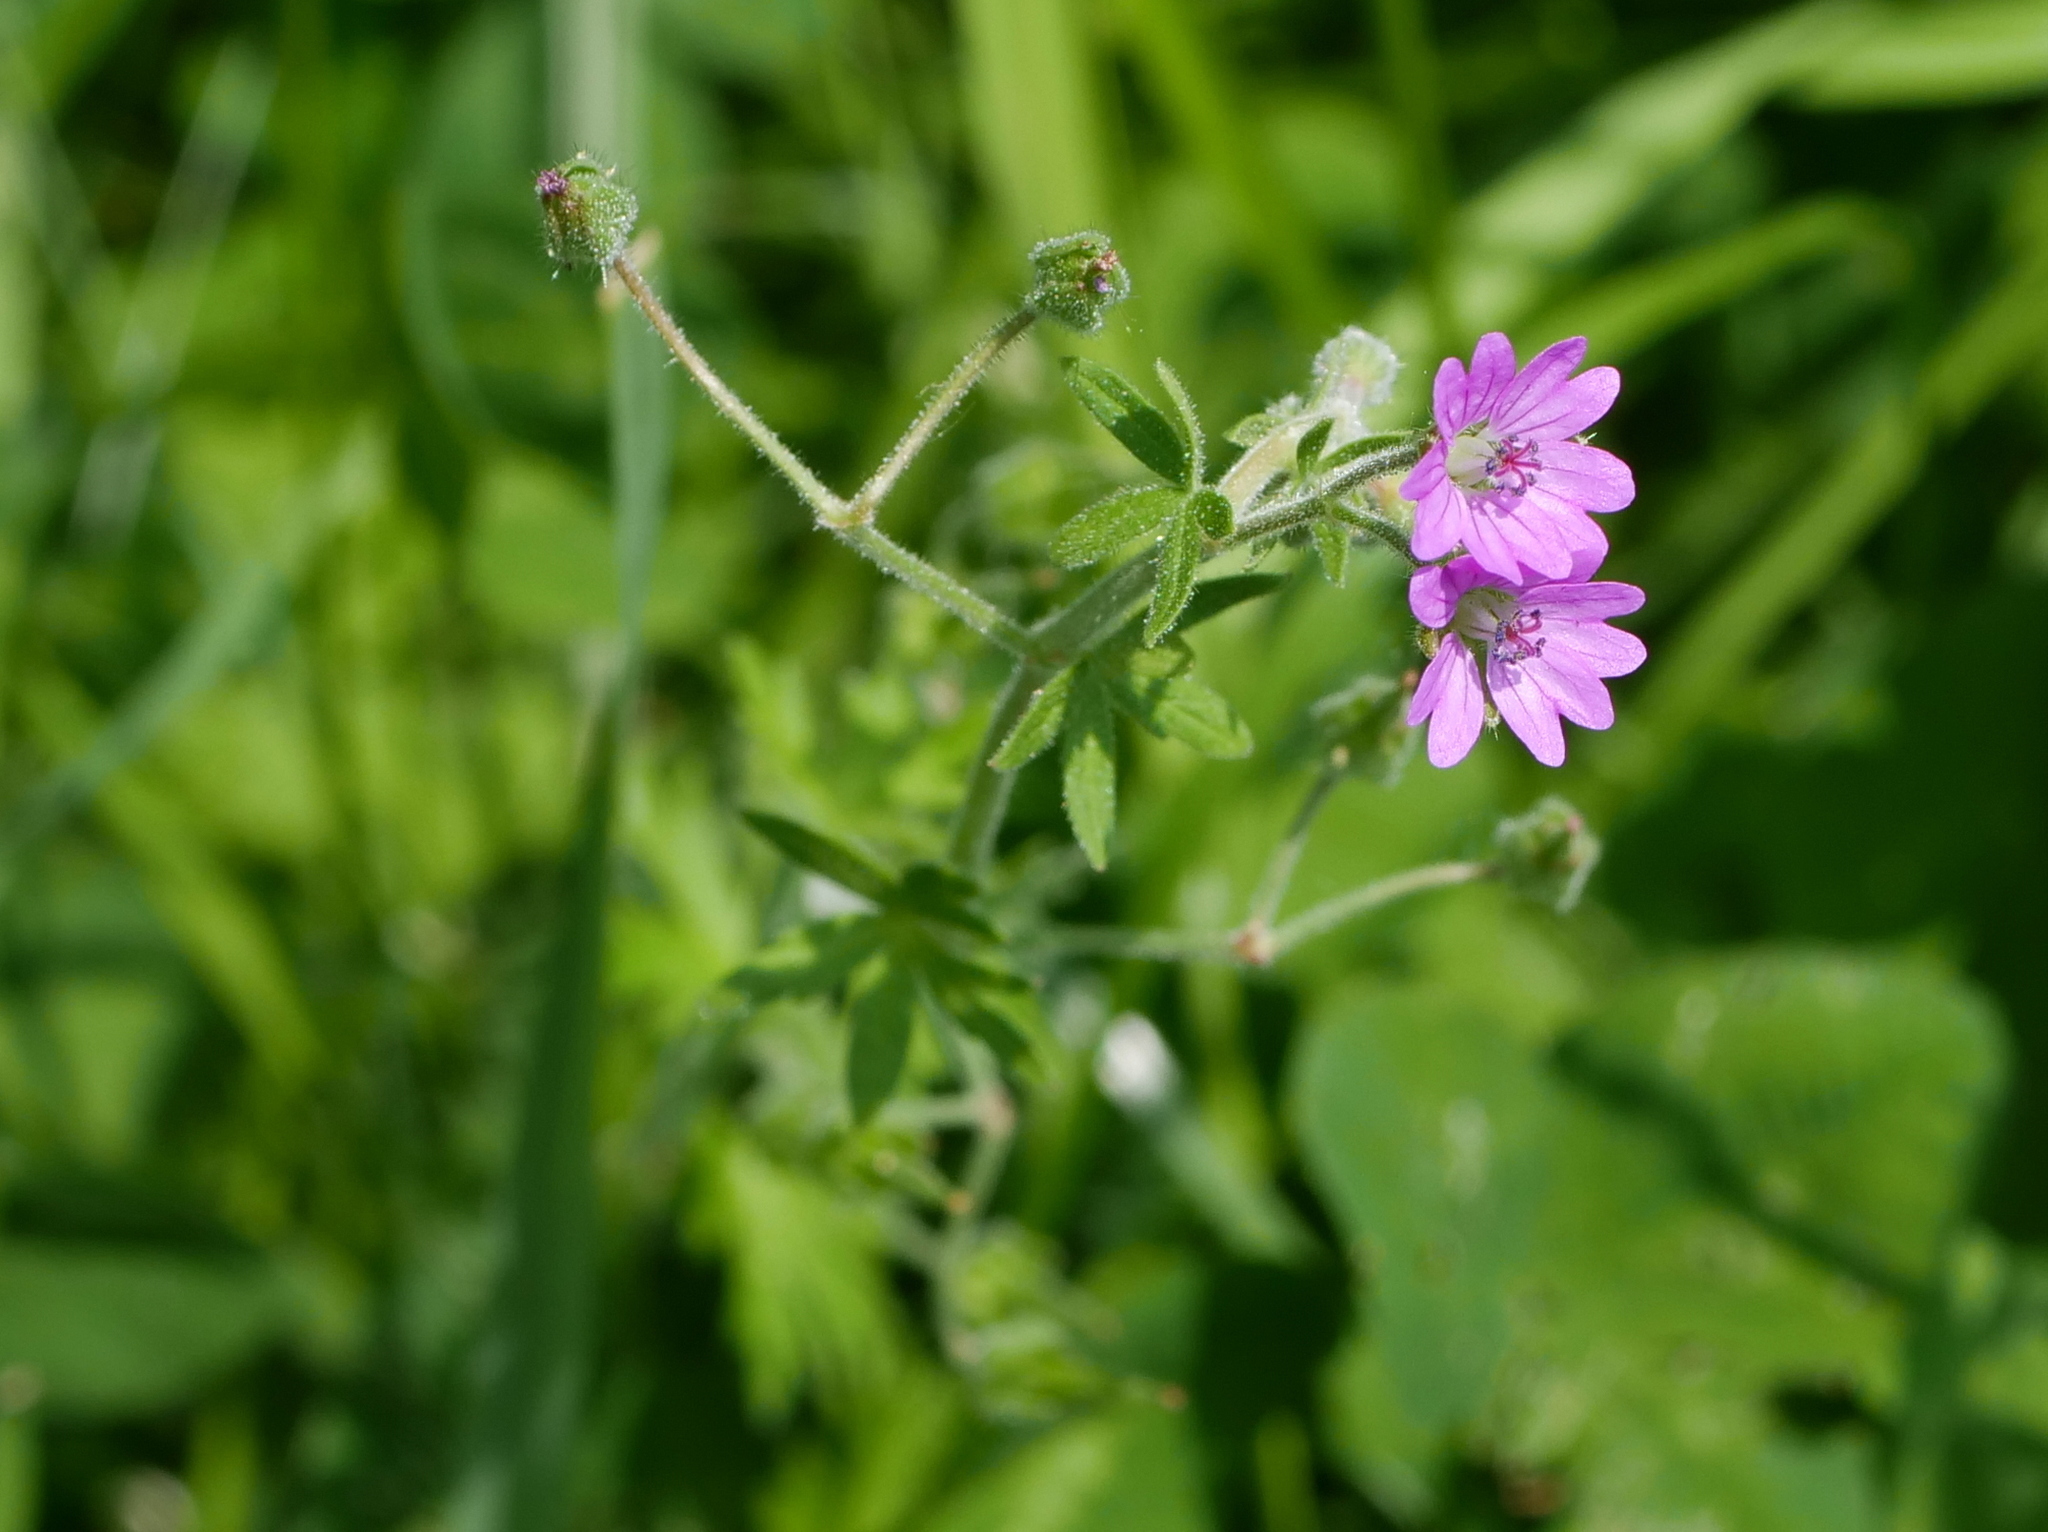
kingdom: Plantae
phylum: Tracheophyta
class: Magnoliopsida
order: Geraniales
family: Geraniaceae
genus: Geranium
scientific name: Geranium aequale
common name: Geranium
